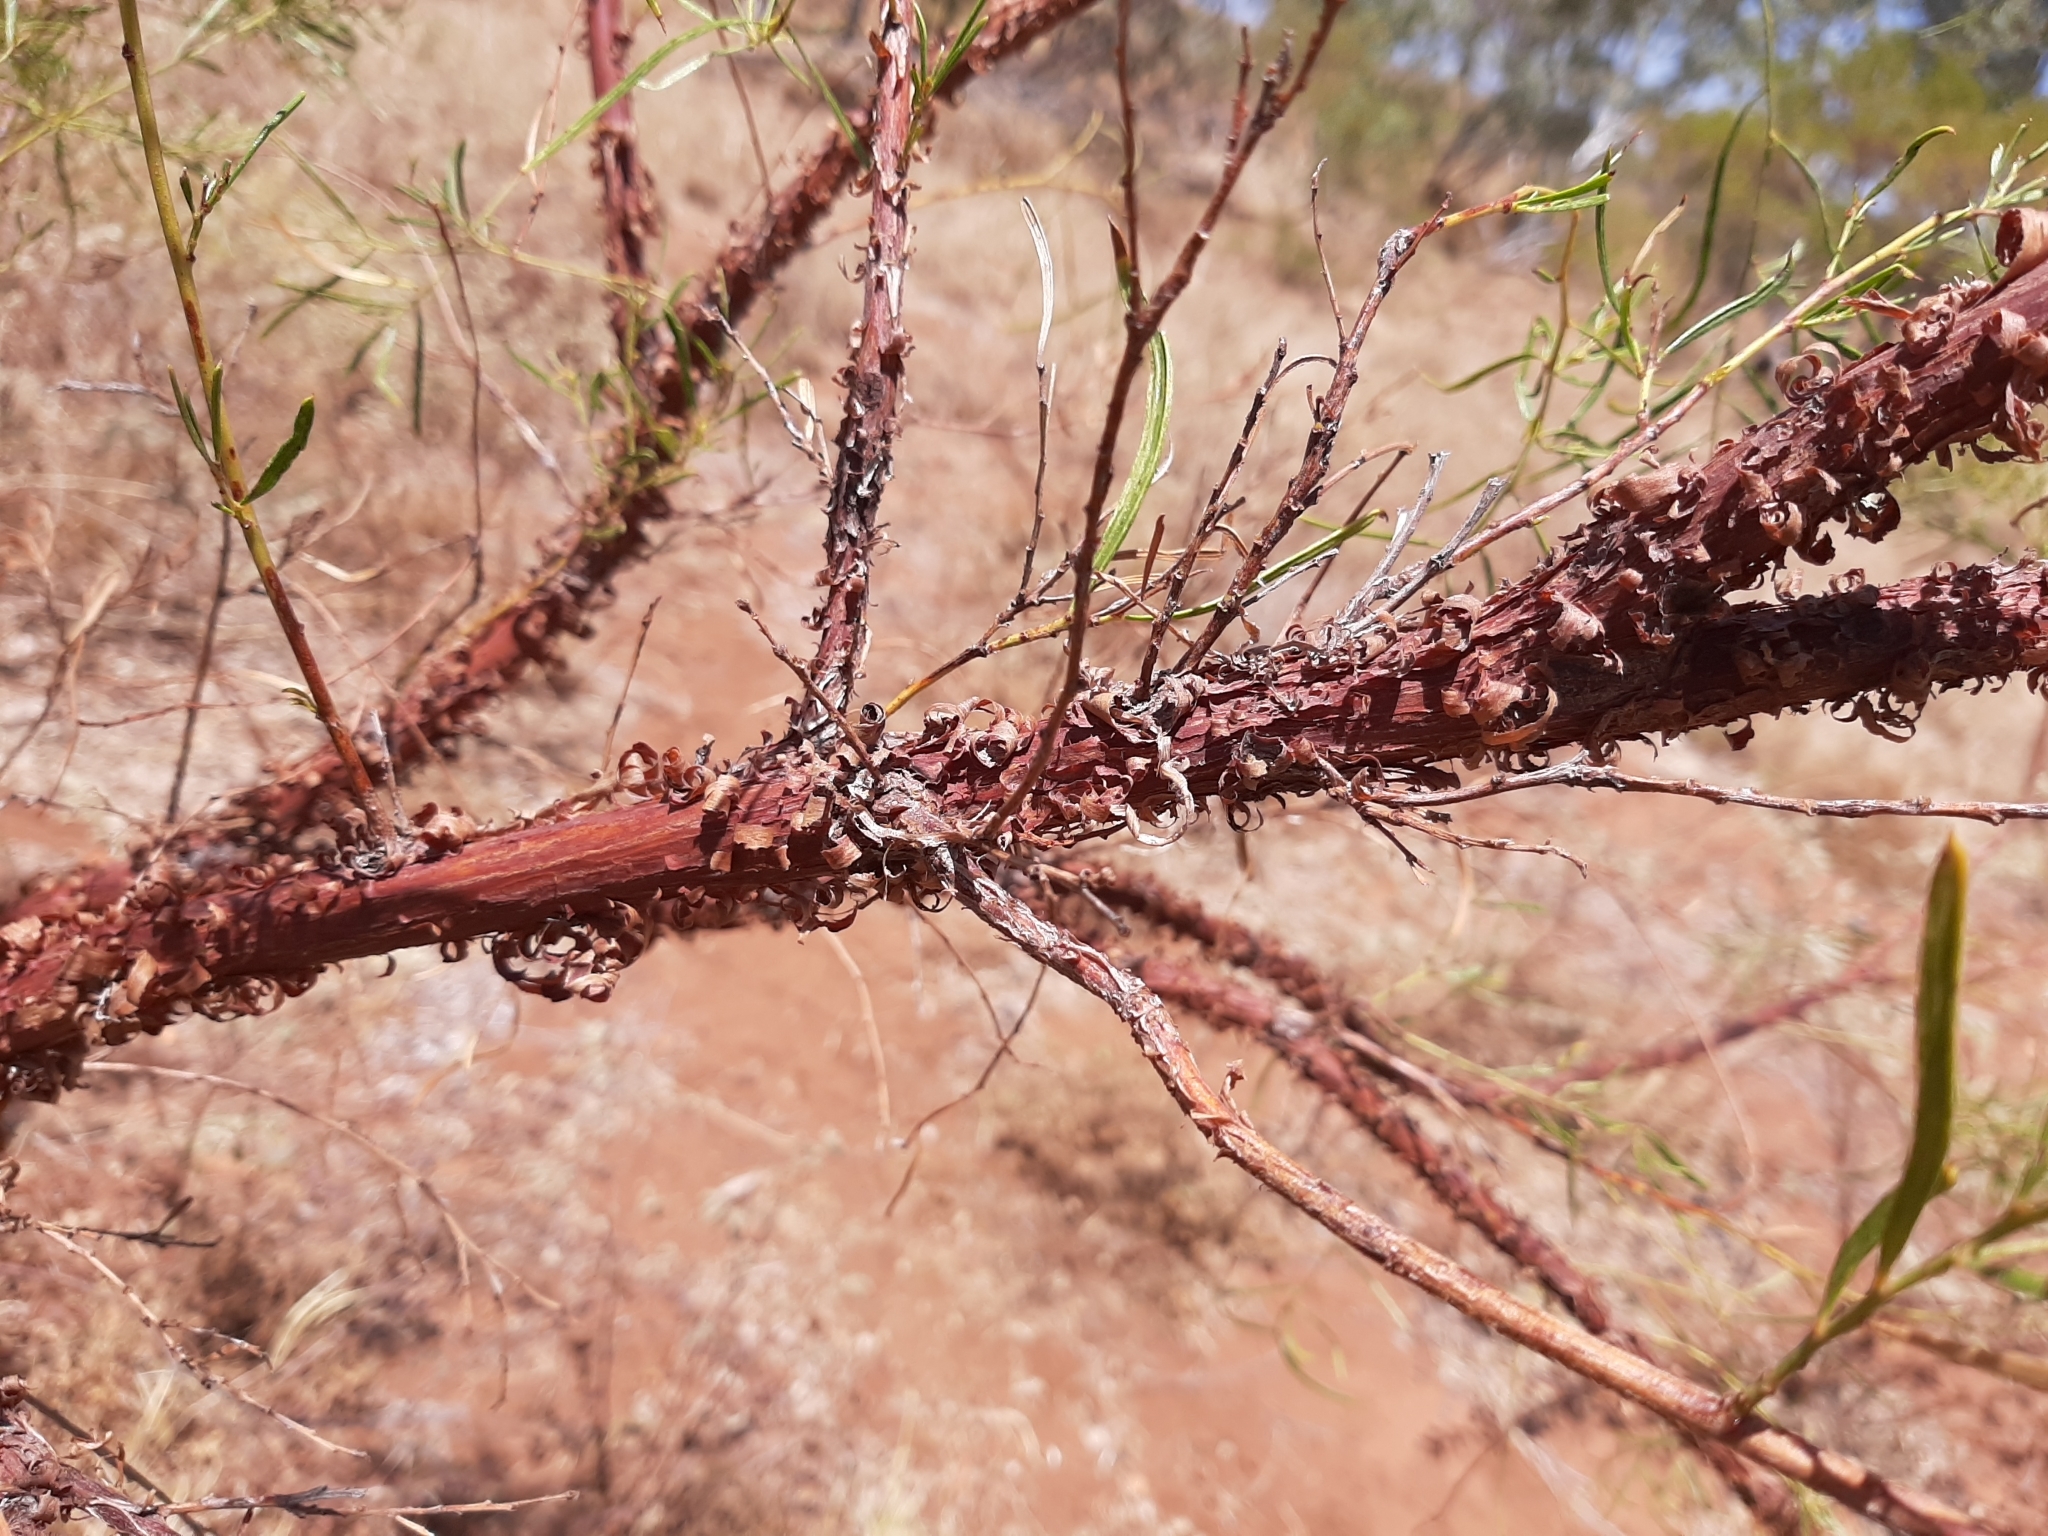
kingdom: Plantae
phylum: Tracheophyta
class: Magnoliopsida
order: Fabales
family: Fabaceae
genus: Acacia
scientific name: Acacia trachycarpa
